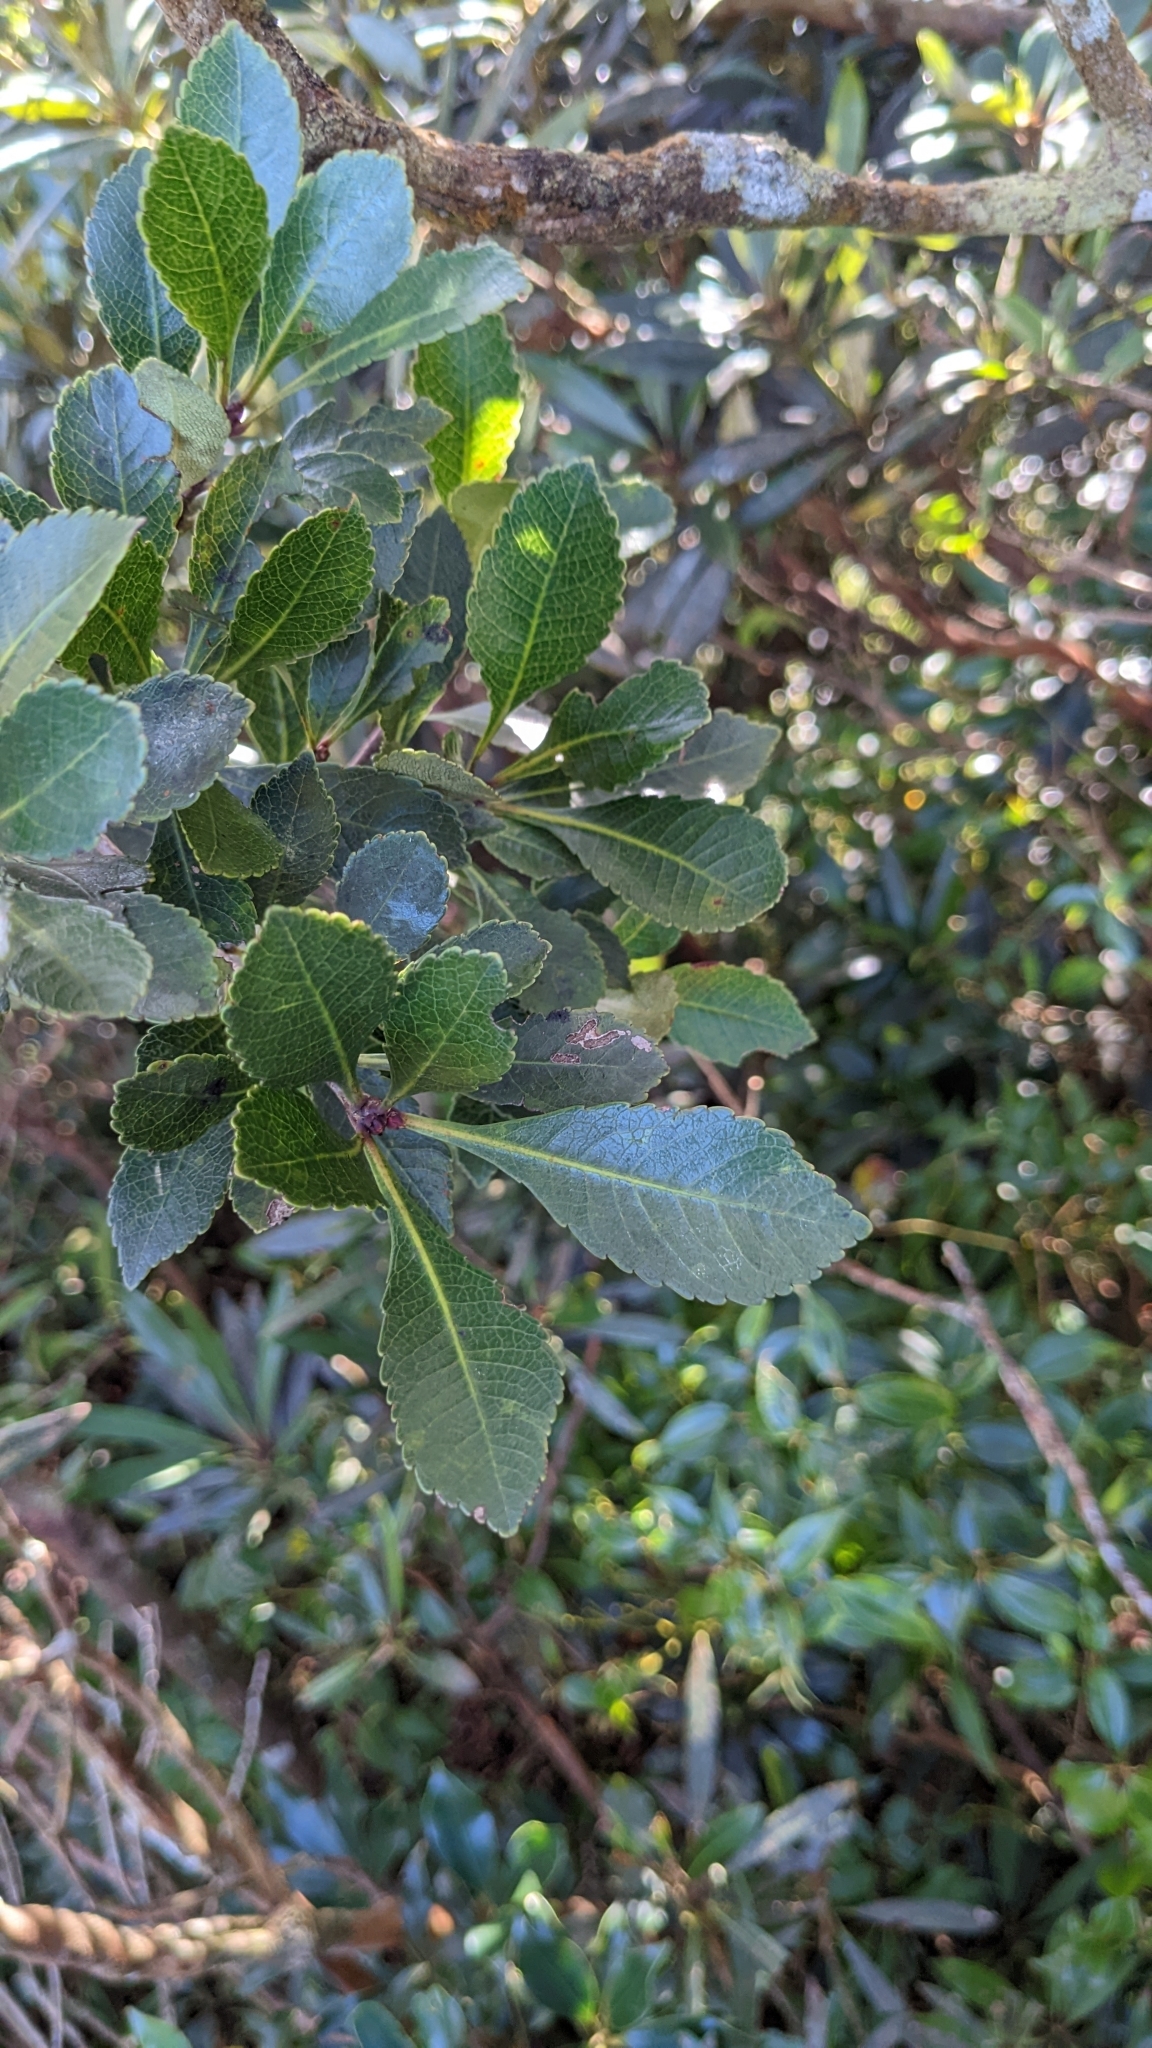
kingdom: Plantae
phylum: Tracheophyta
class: Magnoliopsida
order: Rosales
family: Rosaceae
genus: Rhaphiolepis
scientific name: Rhaphiolepis indica
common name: India-hawthorn
